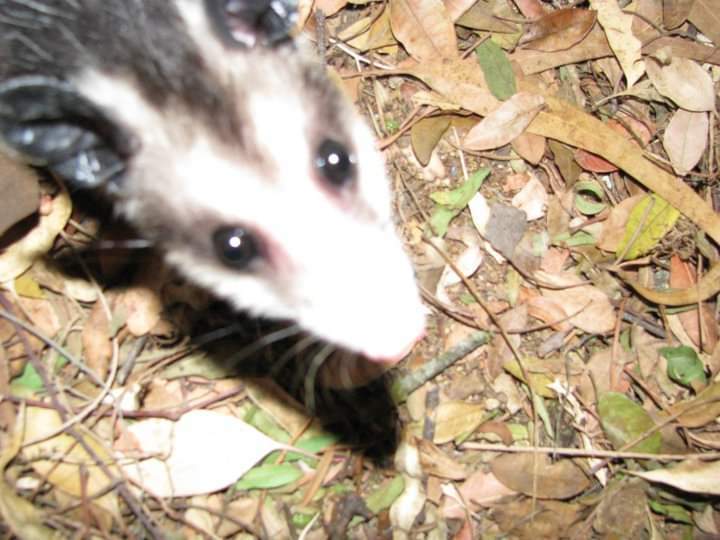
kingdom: Animalia
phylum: Chordata
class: Mammalia
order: Didelphimorphia
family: Didelphidae
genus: Didelphis
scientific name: Didelphis virginiana
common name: Virginia opossum
